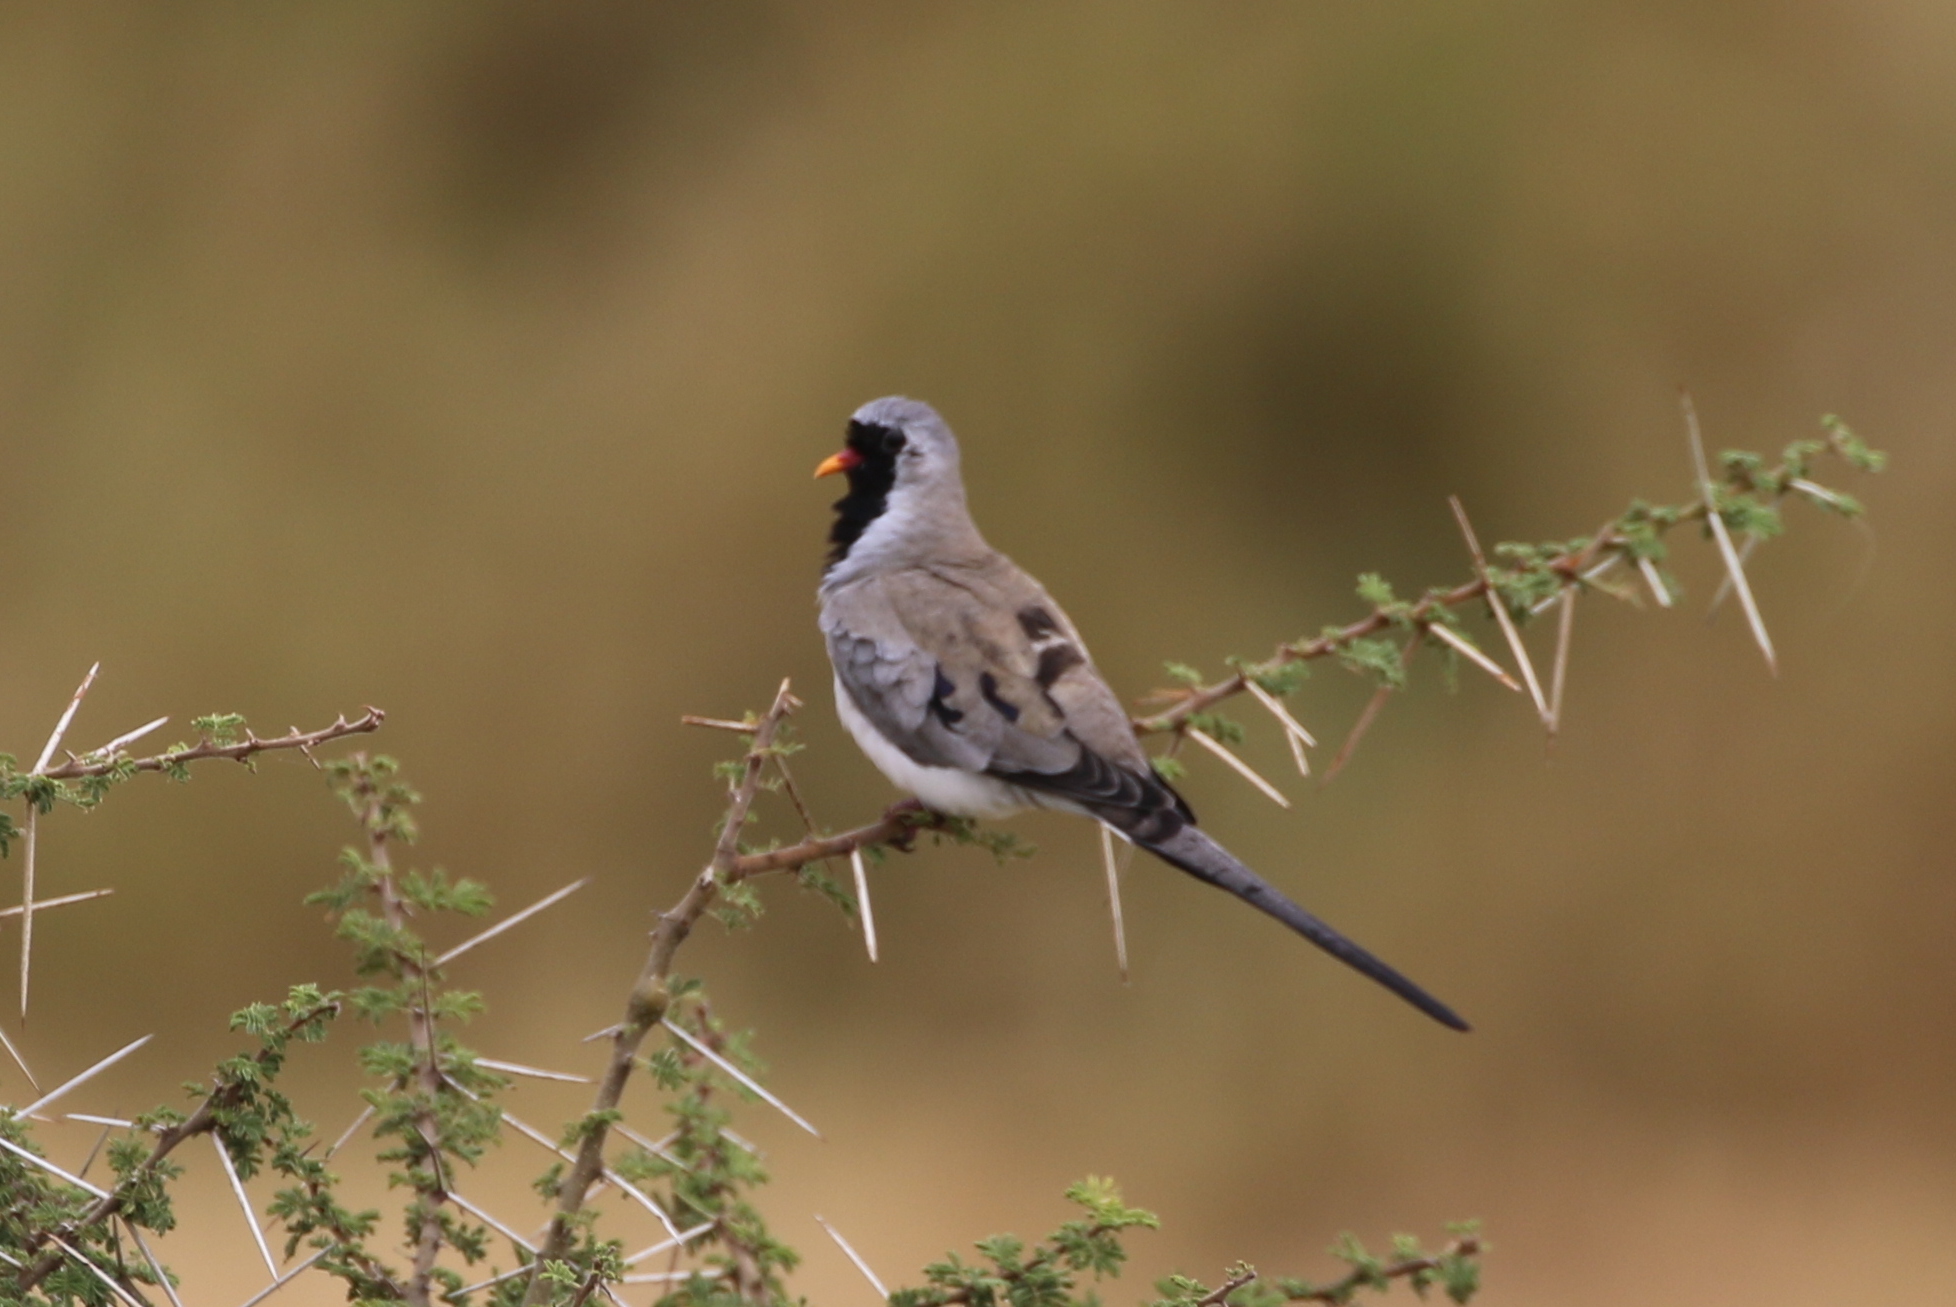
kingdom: Animalia
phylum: Chordata
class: Aves
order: Columbiformes
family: Columbidae
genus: Oena
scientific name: Oena capensis
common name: Namaqua dove
